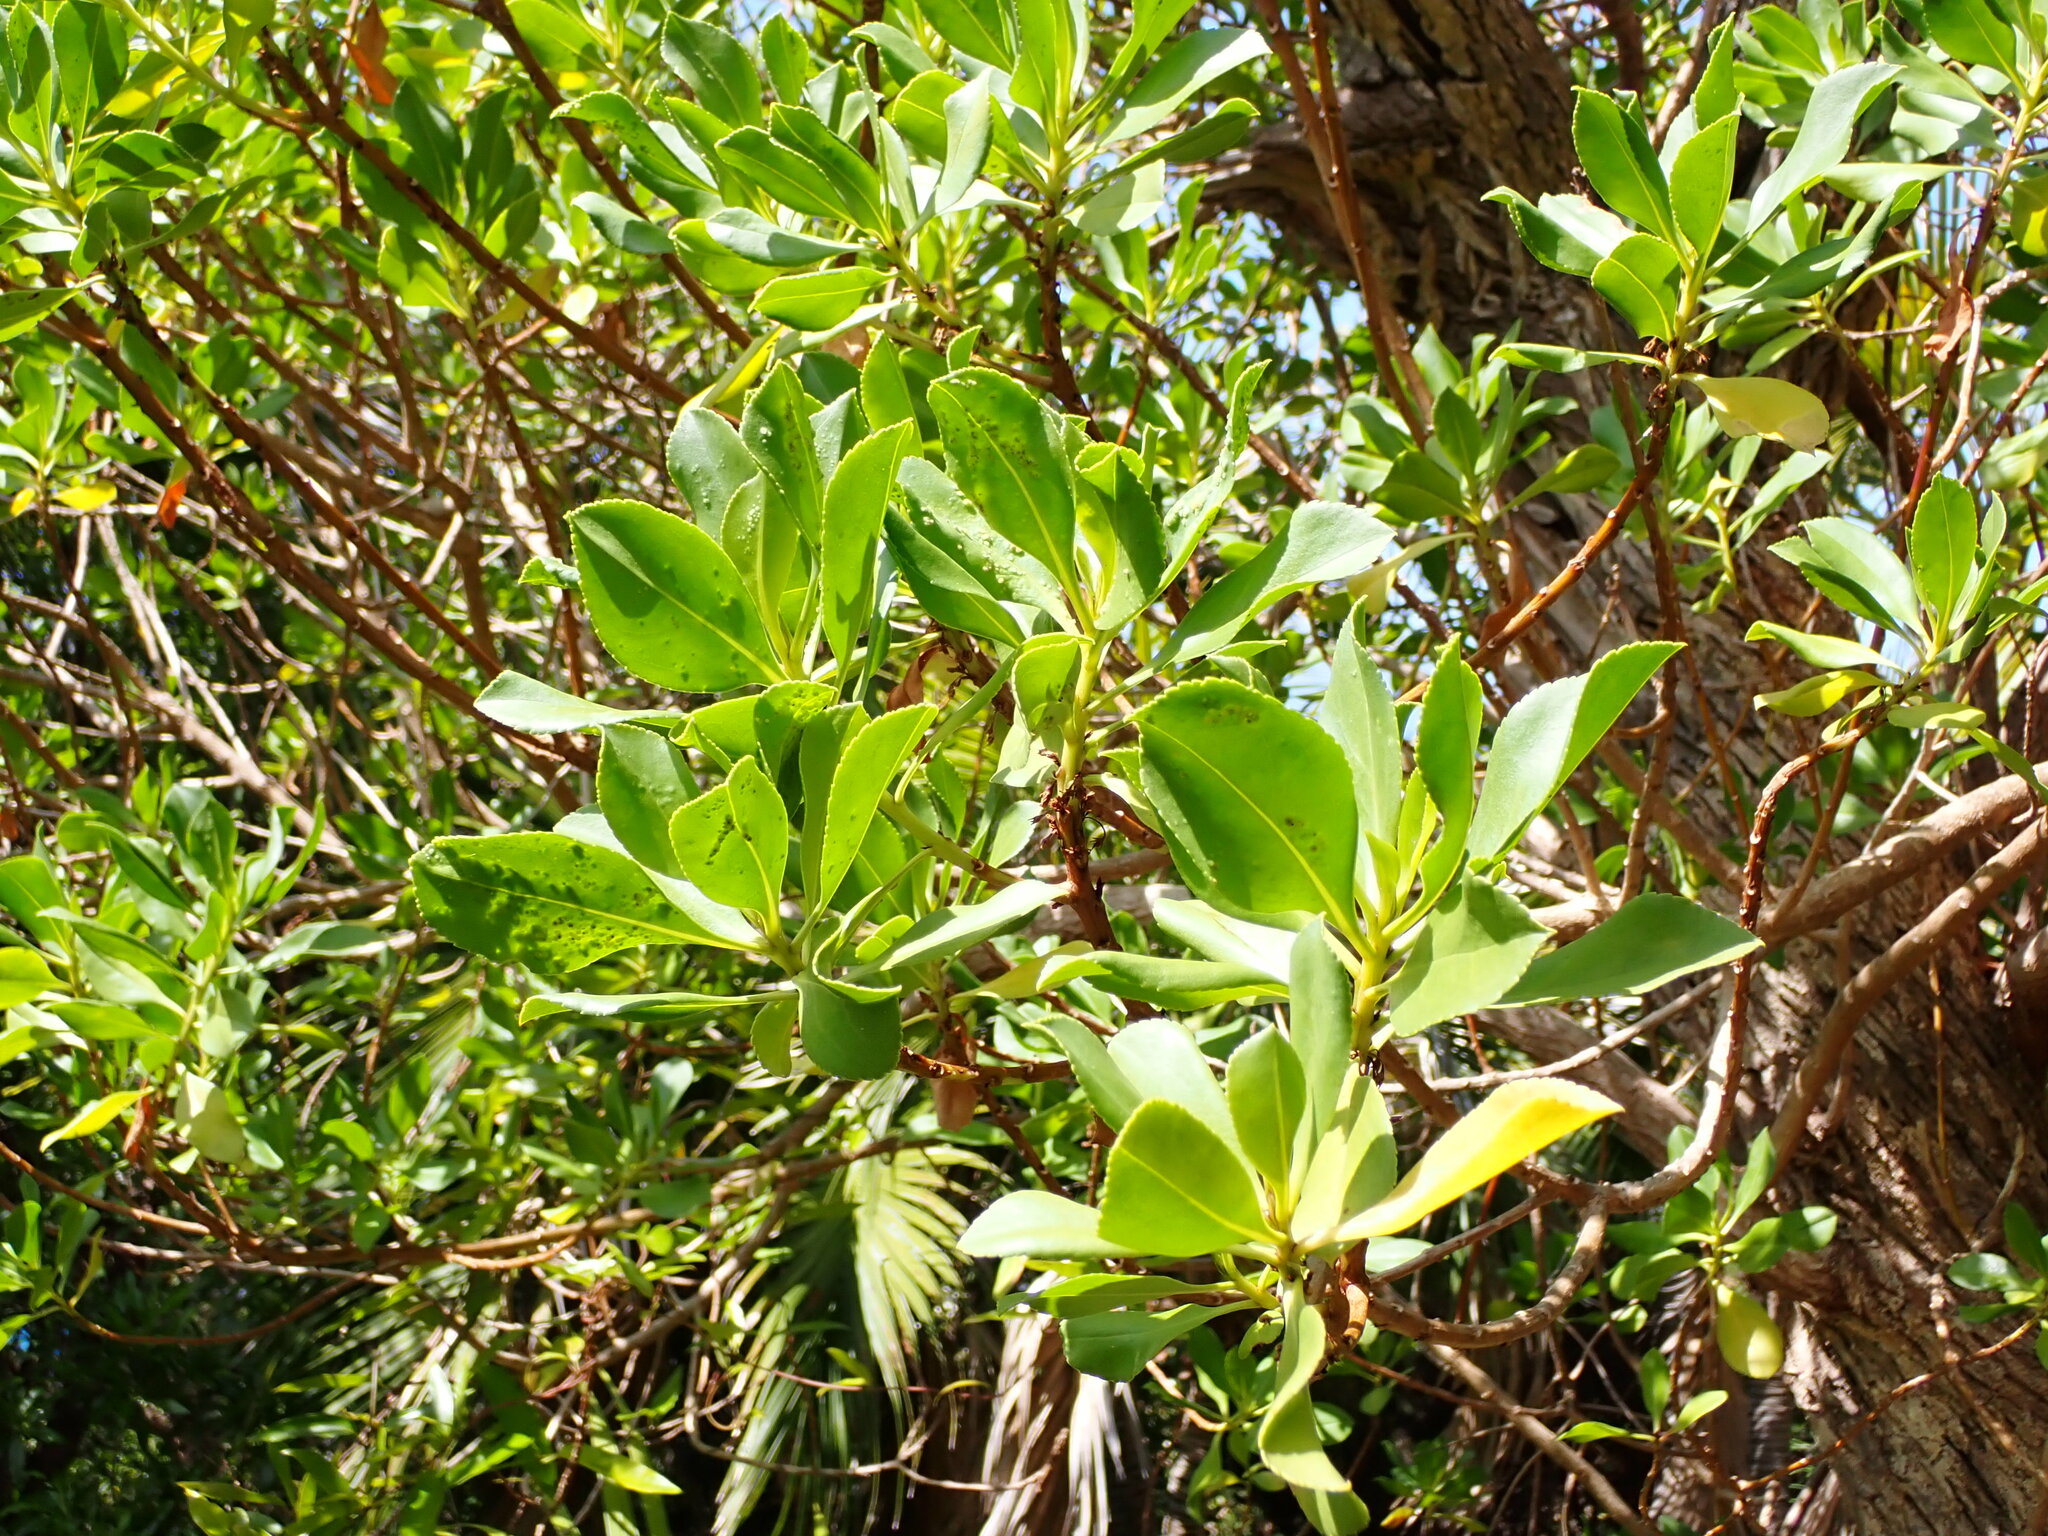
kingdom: Plantae
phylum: Tracheophyta
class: Magnoliopsida
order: Lamiales
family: Scrophulariaceae
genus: Myoporum
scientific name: Myoporum insulare
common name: Common boobialla
